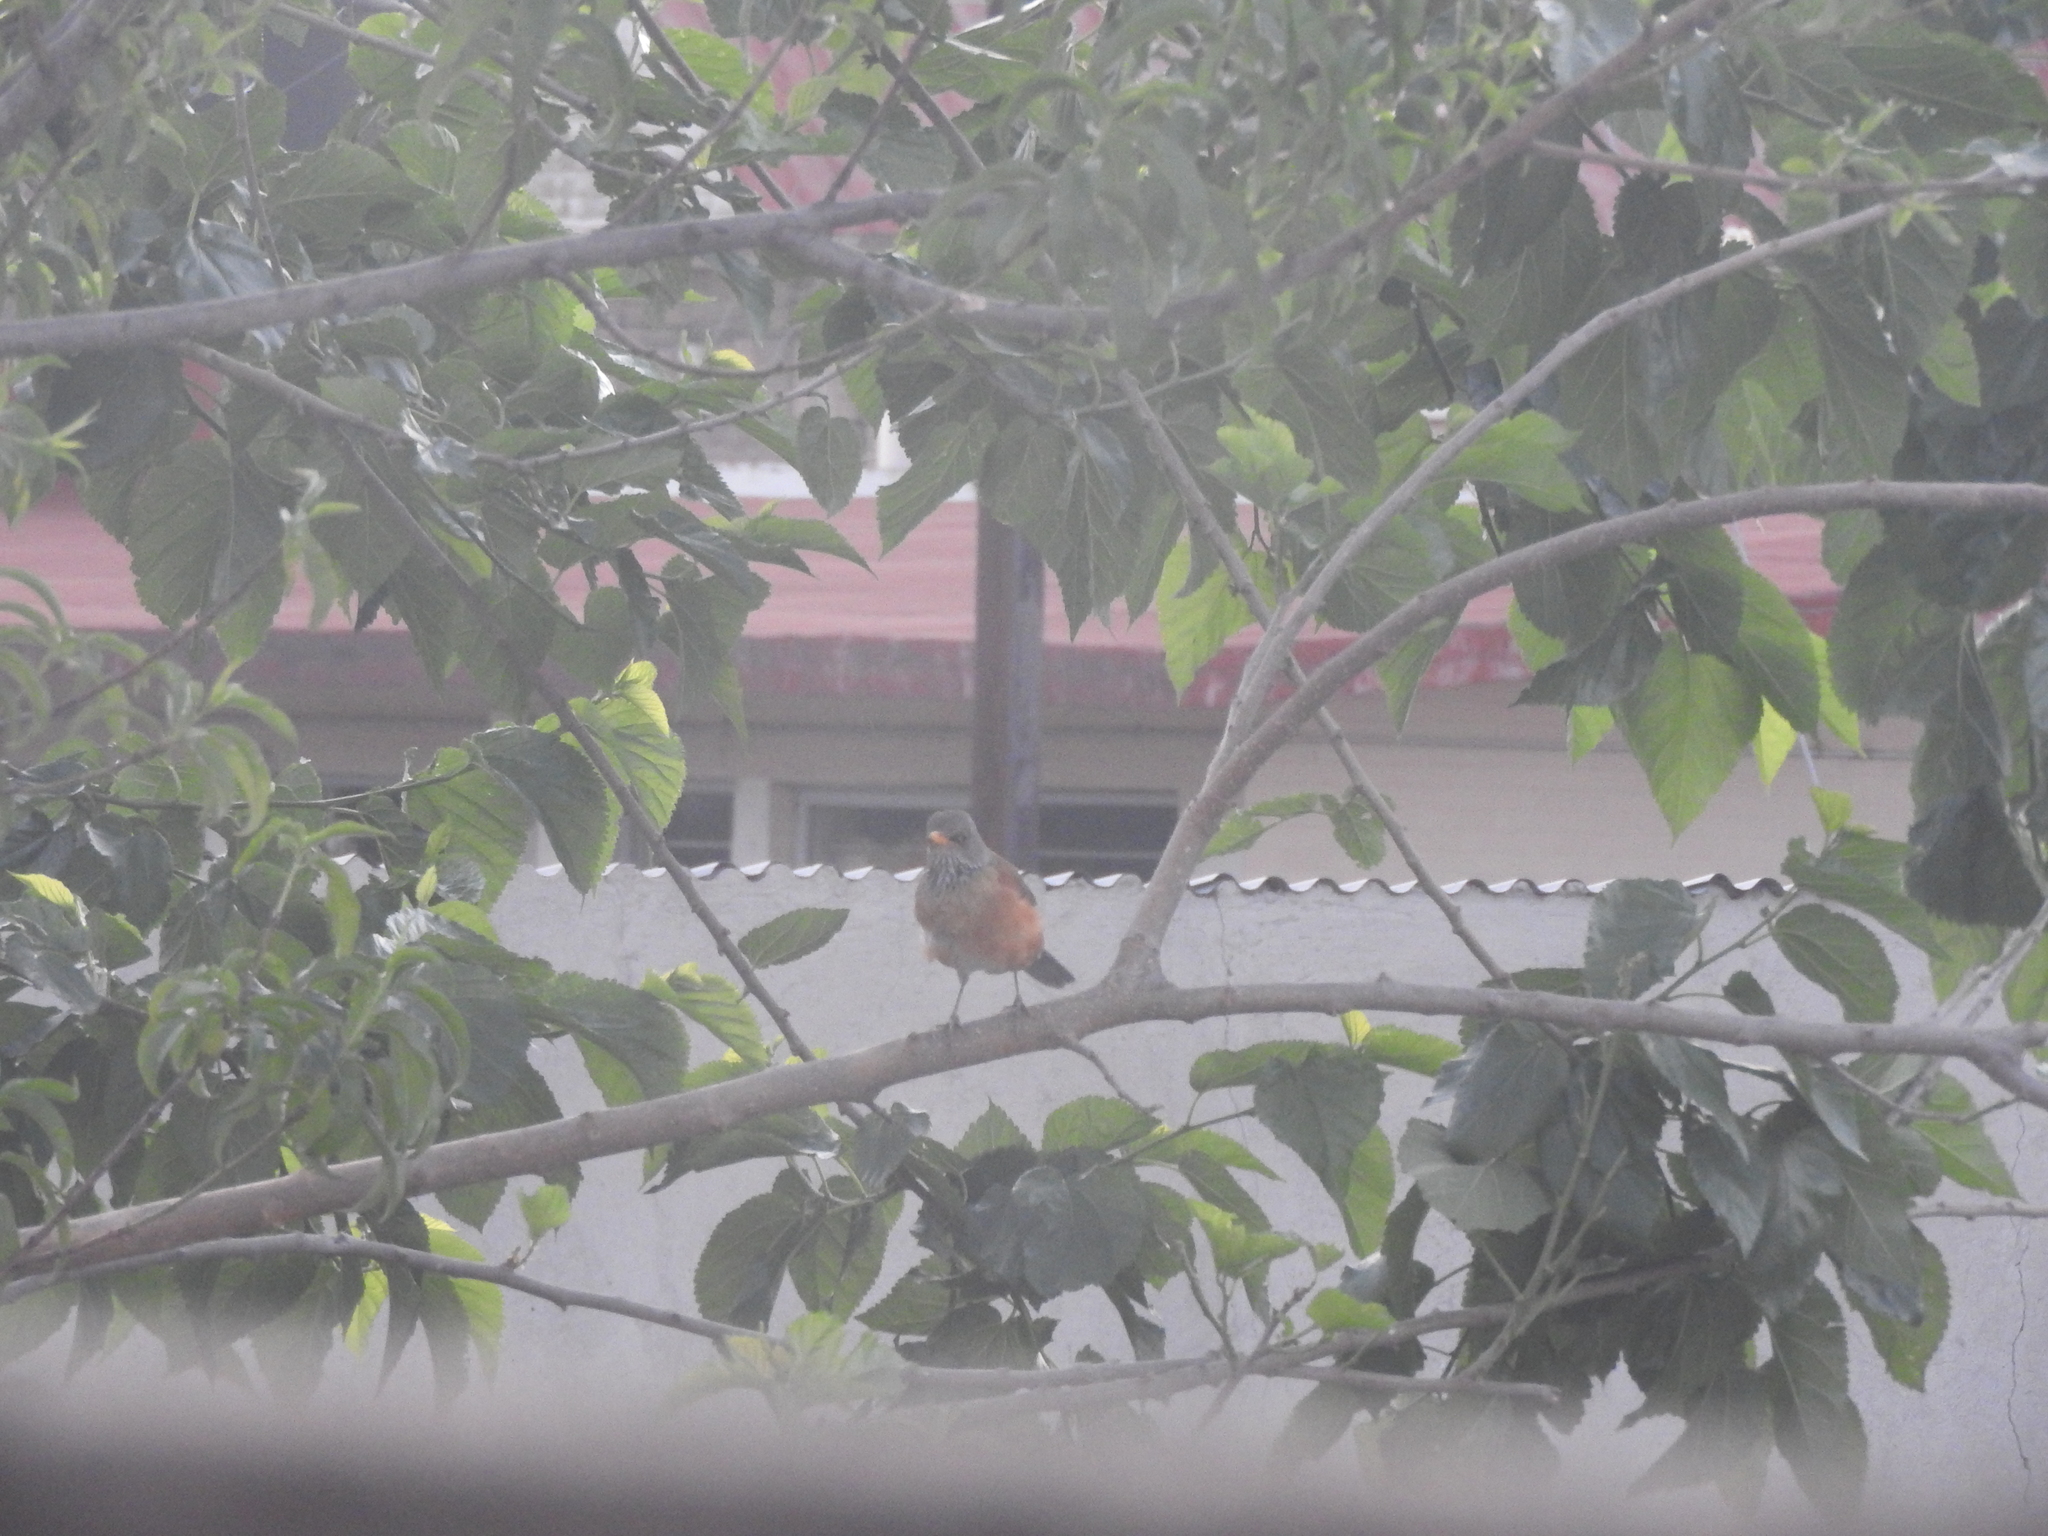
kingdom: Animalia
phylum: Chordata
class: Aves
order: Passeriformes
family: Turdidae
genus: Turdus
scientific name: Turdus rufopalliatus
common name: Rufous-backed robin
